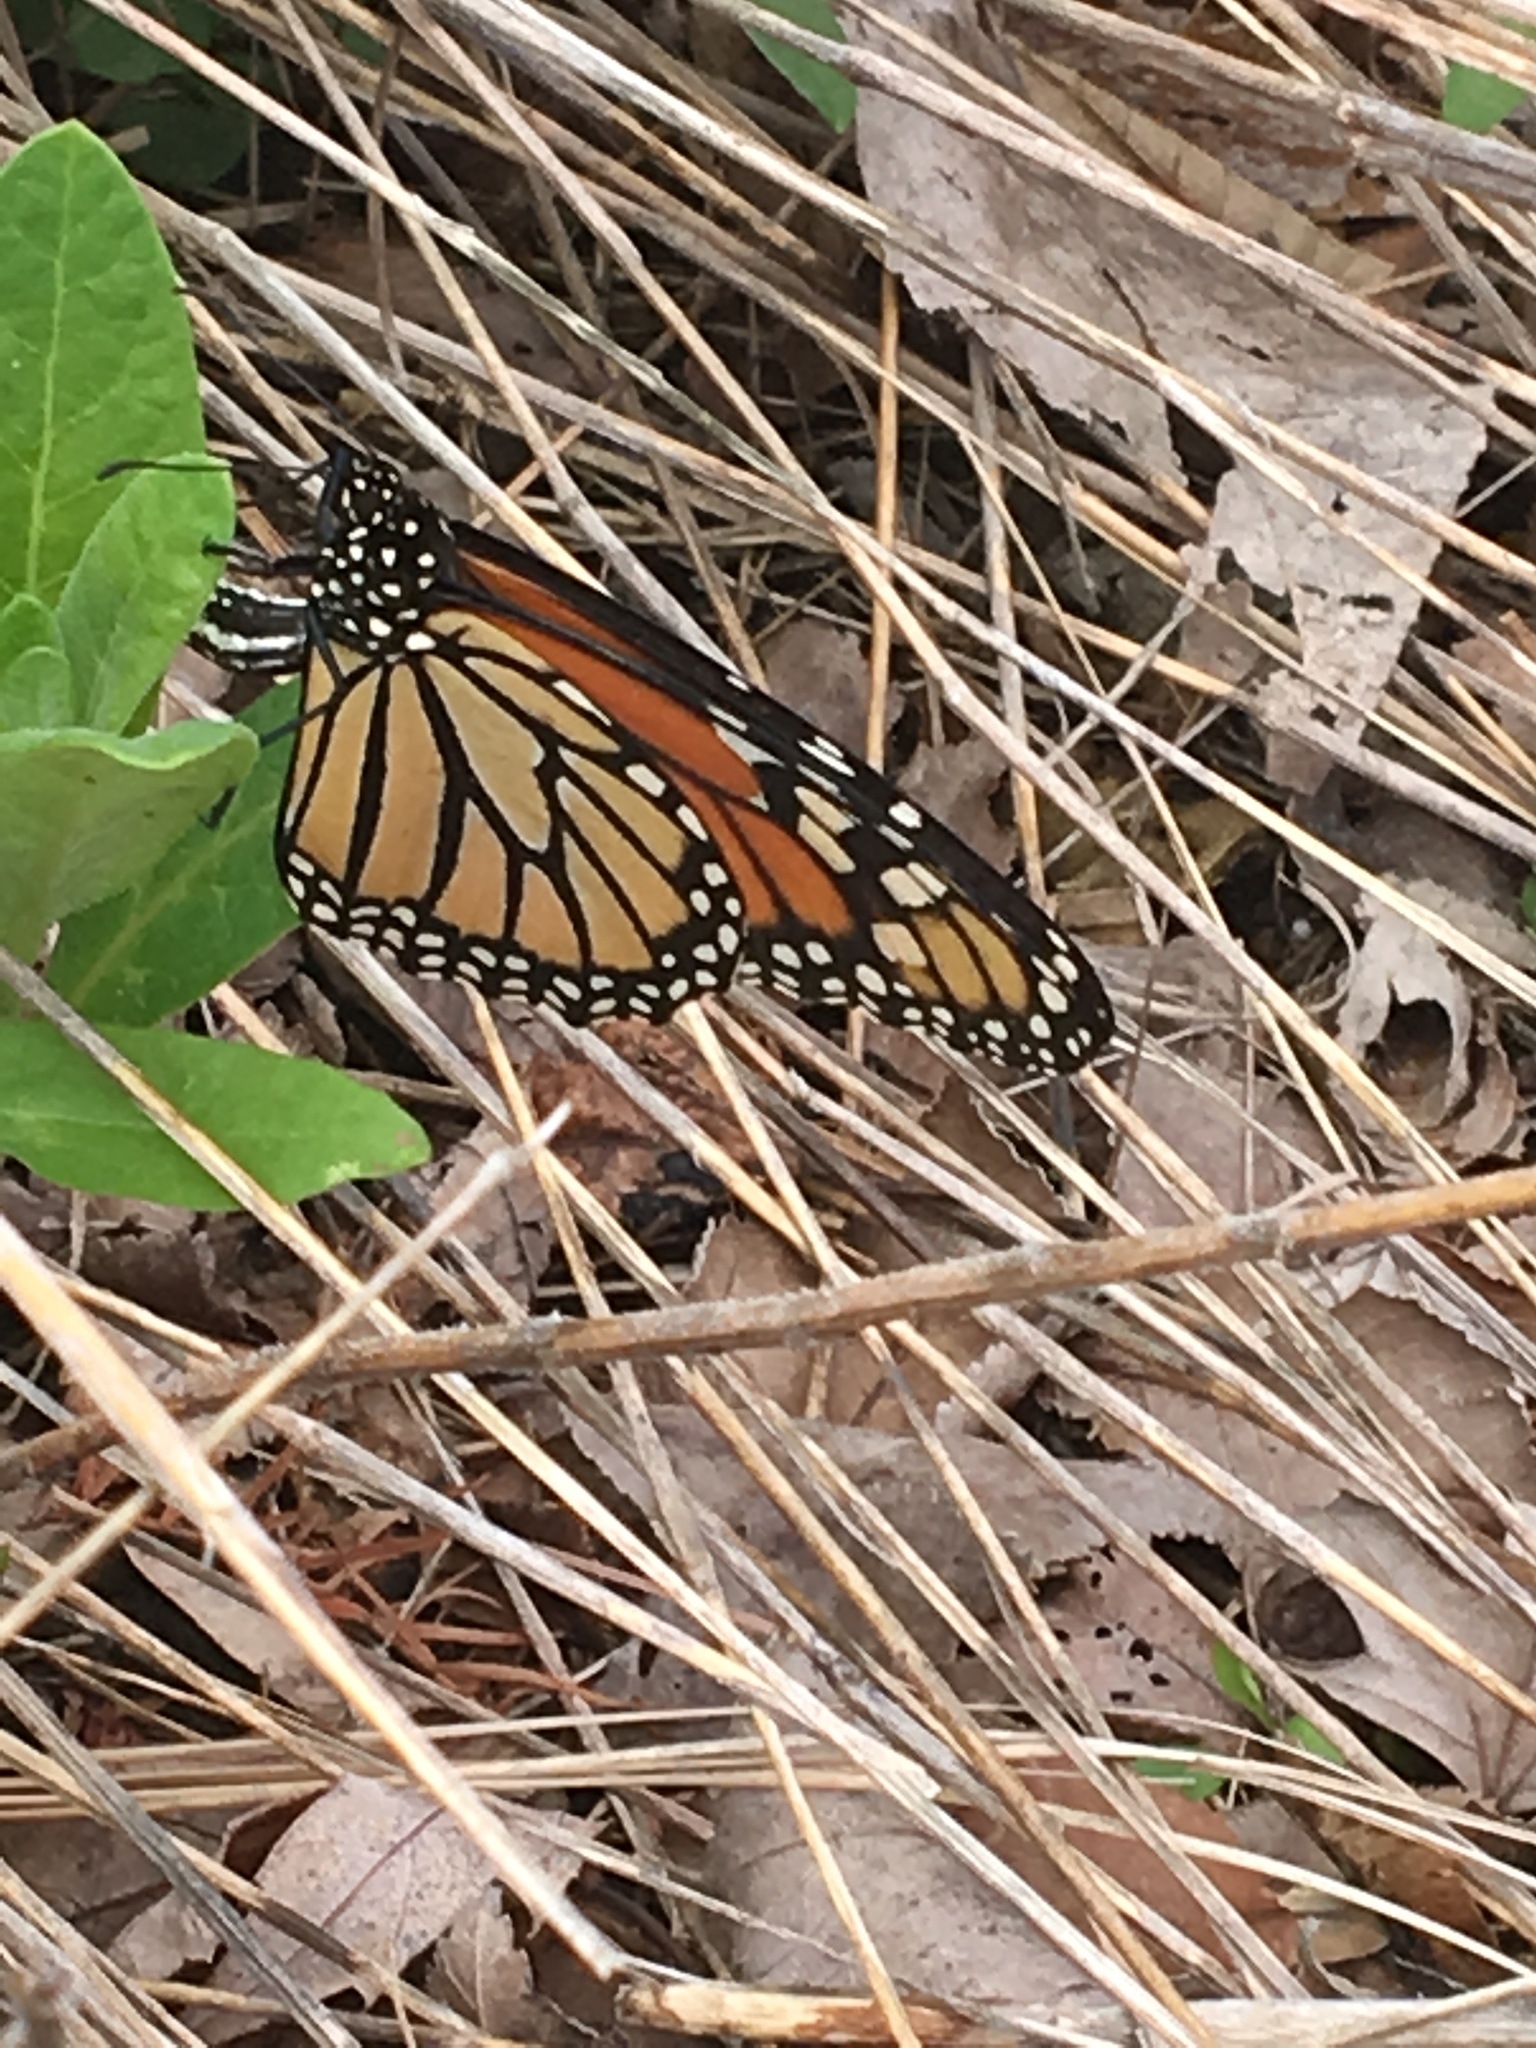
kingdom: Animalia
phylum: Arthropoda
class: Insecta
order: Lepidoptera
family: Nymphalidae
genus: Danaus
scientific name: Danaus plexippus
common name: Monarch
